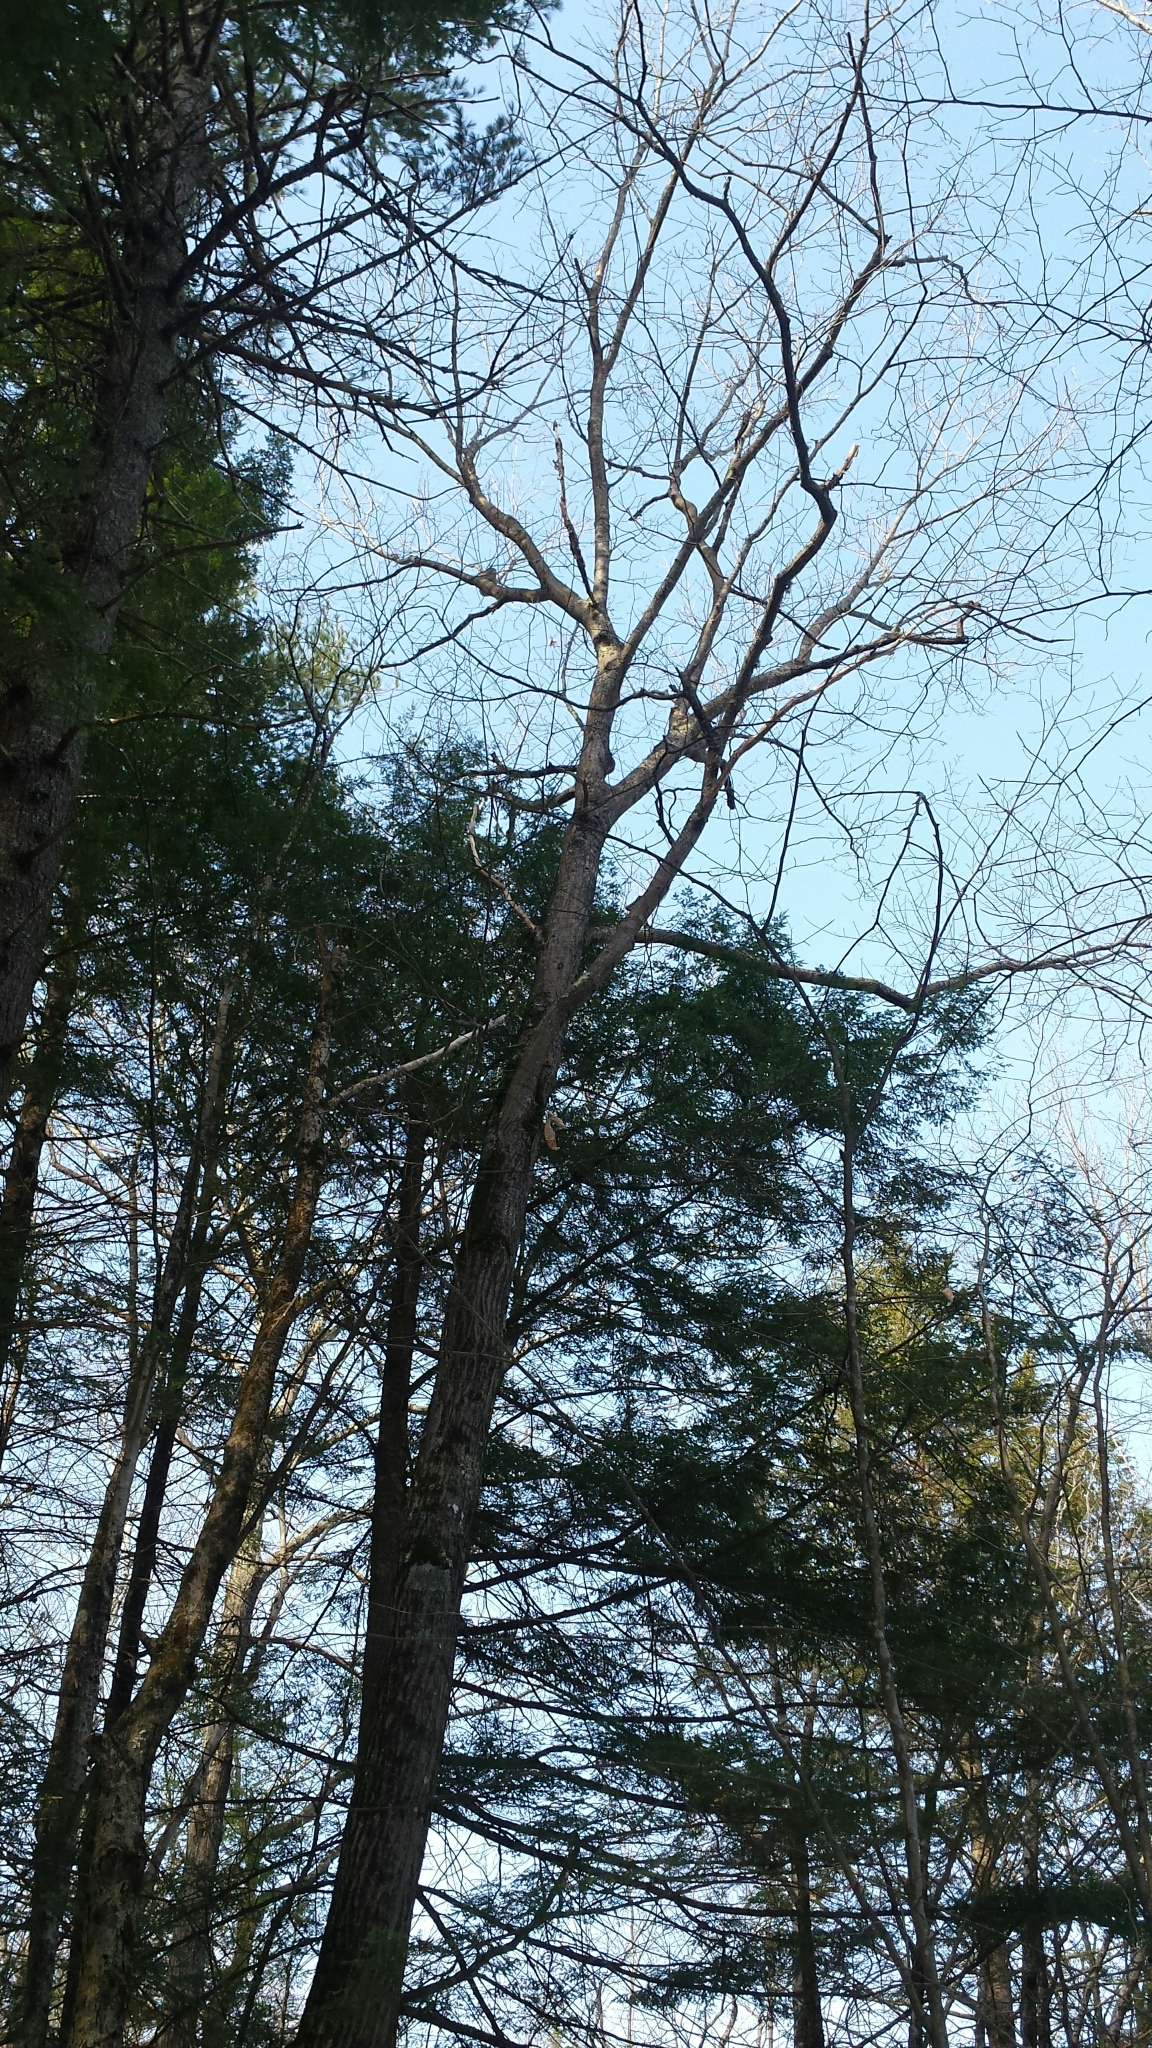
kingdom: Plantae
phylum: Tracheophyta
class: Magnoliopsida
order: Fagales
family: Fagaceae
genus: Quercus
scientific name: Quercus rubra
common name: Red oak
